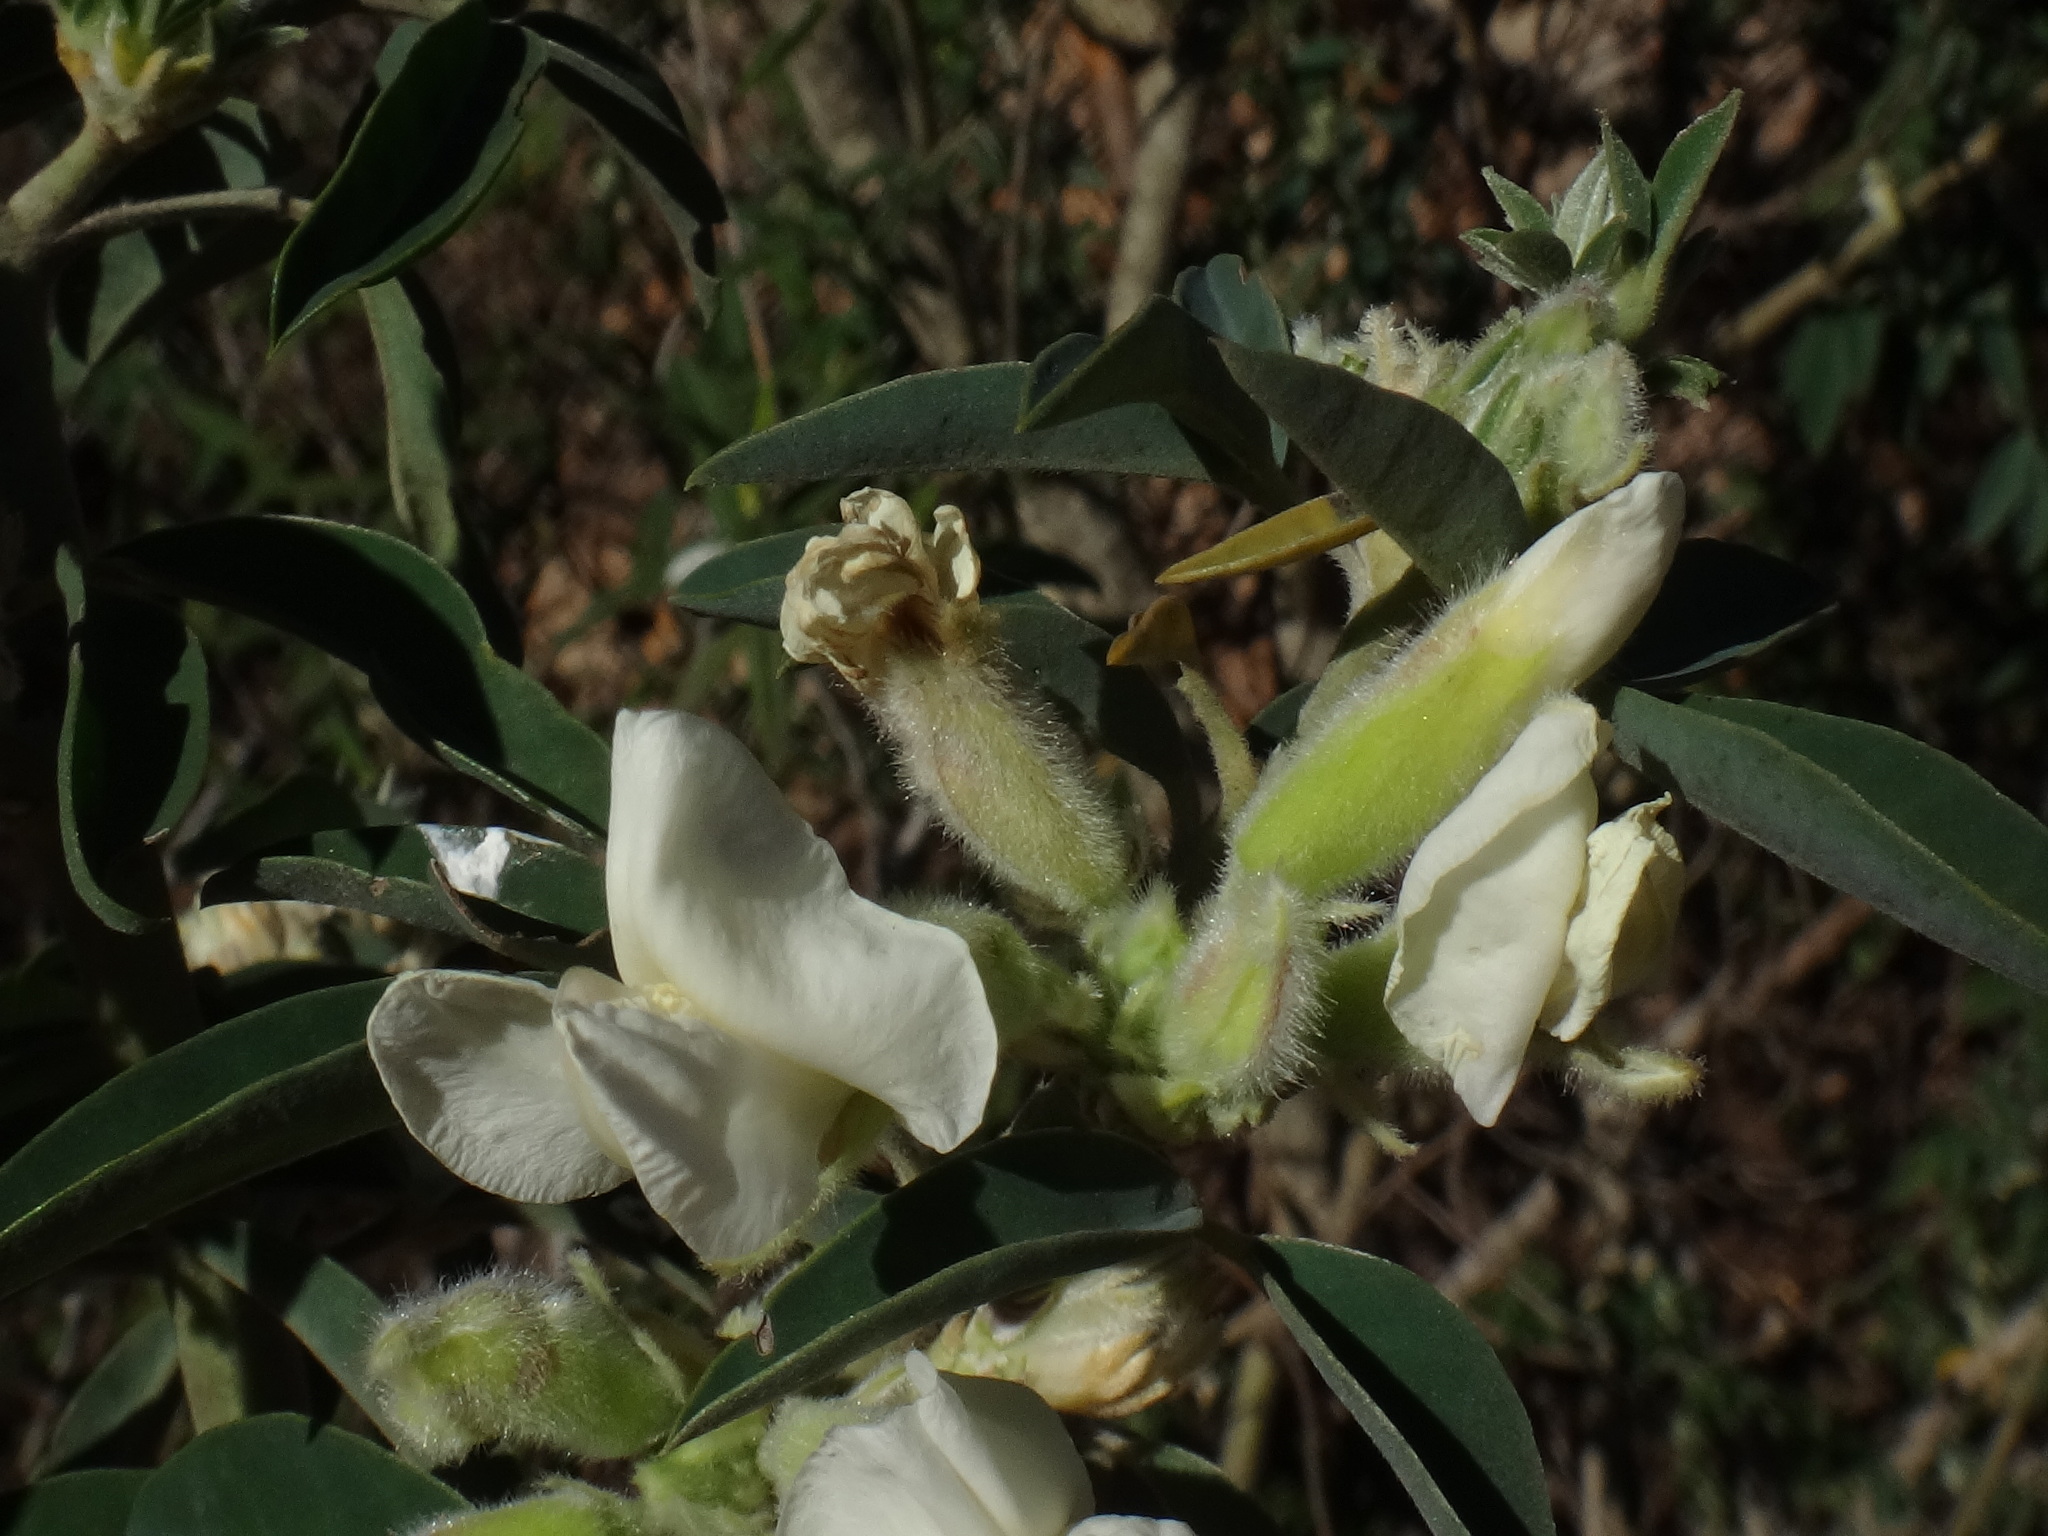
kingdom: Plantae
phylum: Tracheophyta
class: Magnoliopsida
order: Fabales
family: Fabaceae
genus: Chamaecytisus
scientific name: Chamaecytisus prolifer
